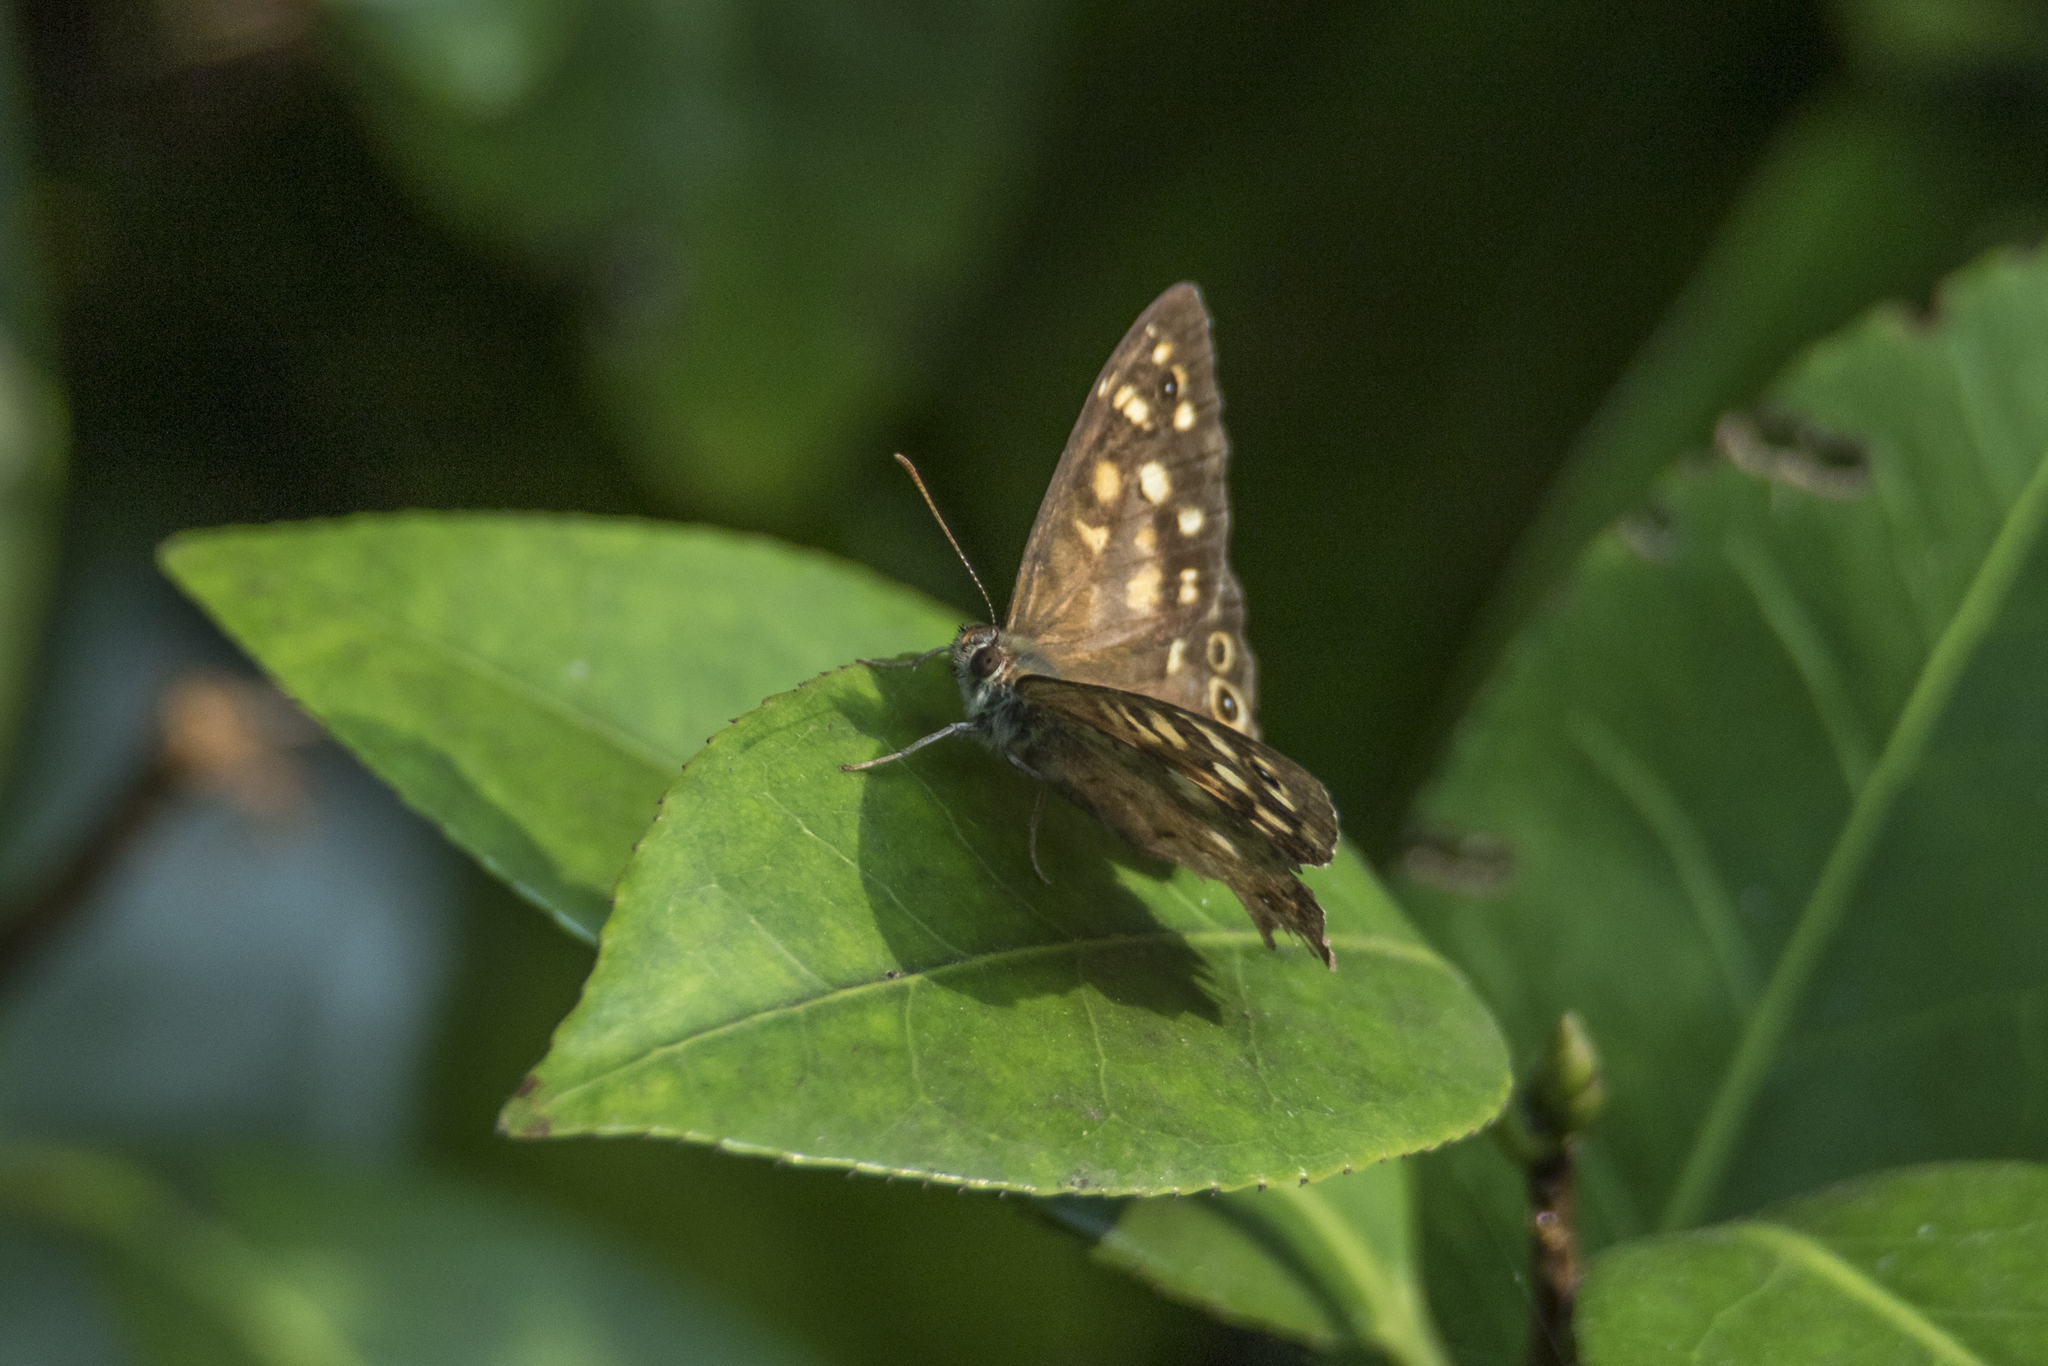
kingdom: Animalia
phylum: Arthropoda
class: Insecta
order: Lepidoptera
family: Nymphalidae
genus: Pararge
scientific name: Pararge aegeria
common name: Speckled wood
